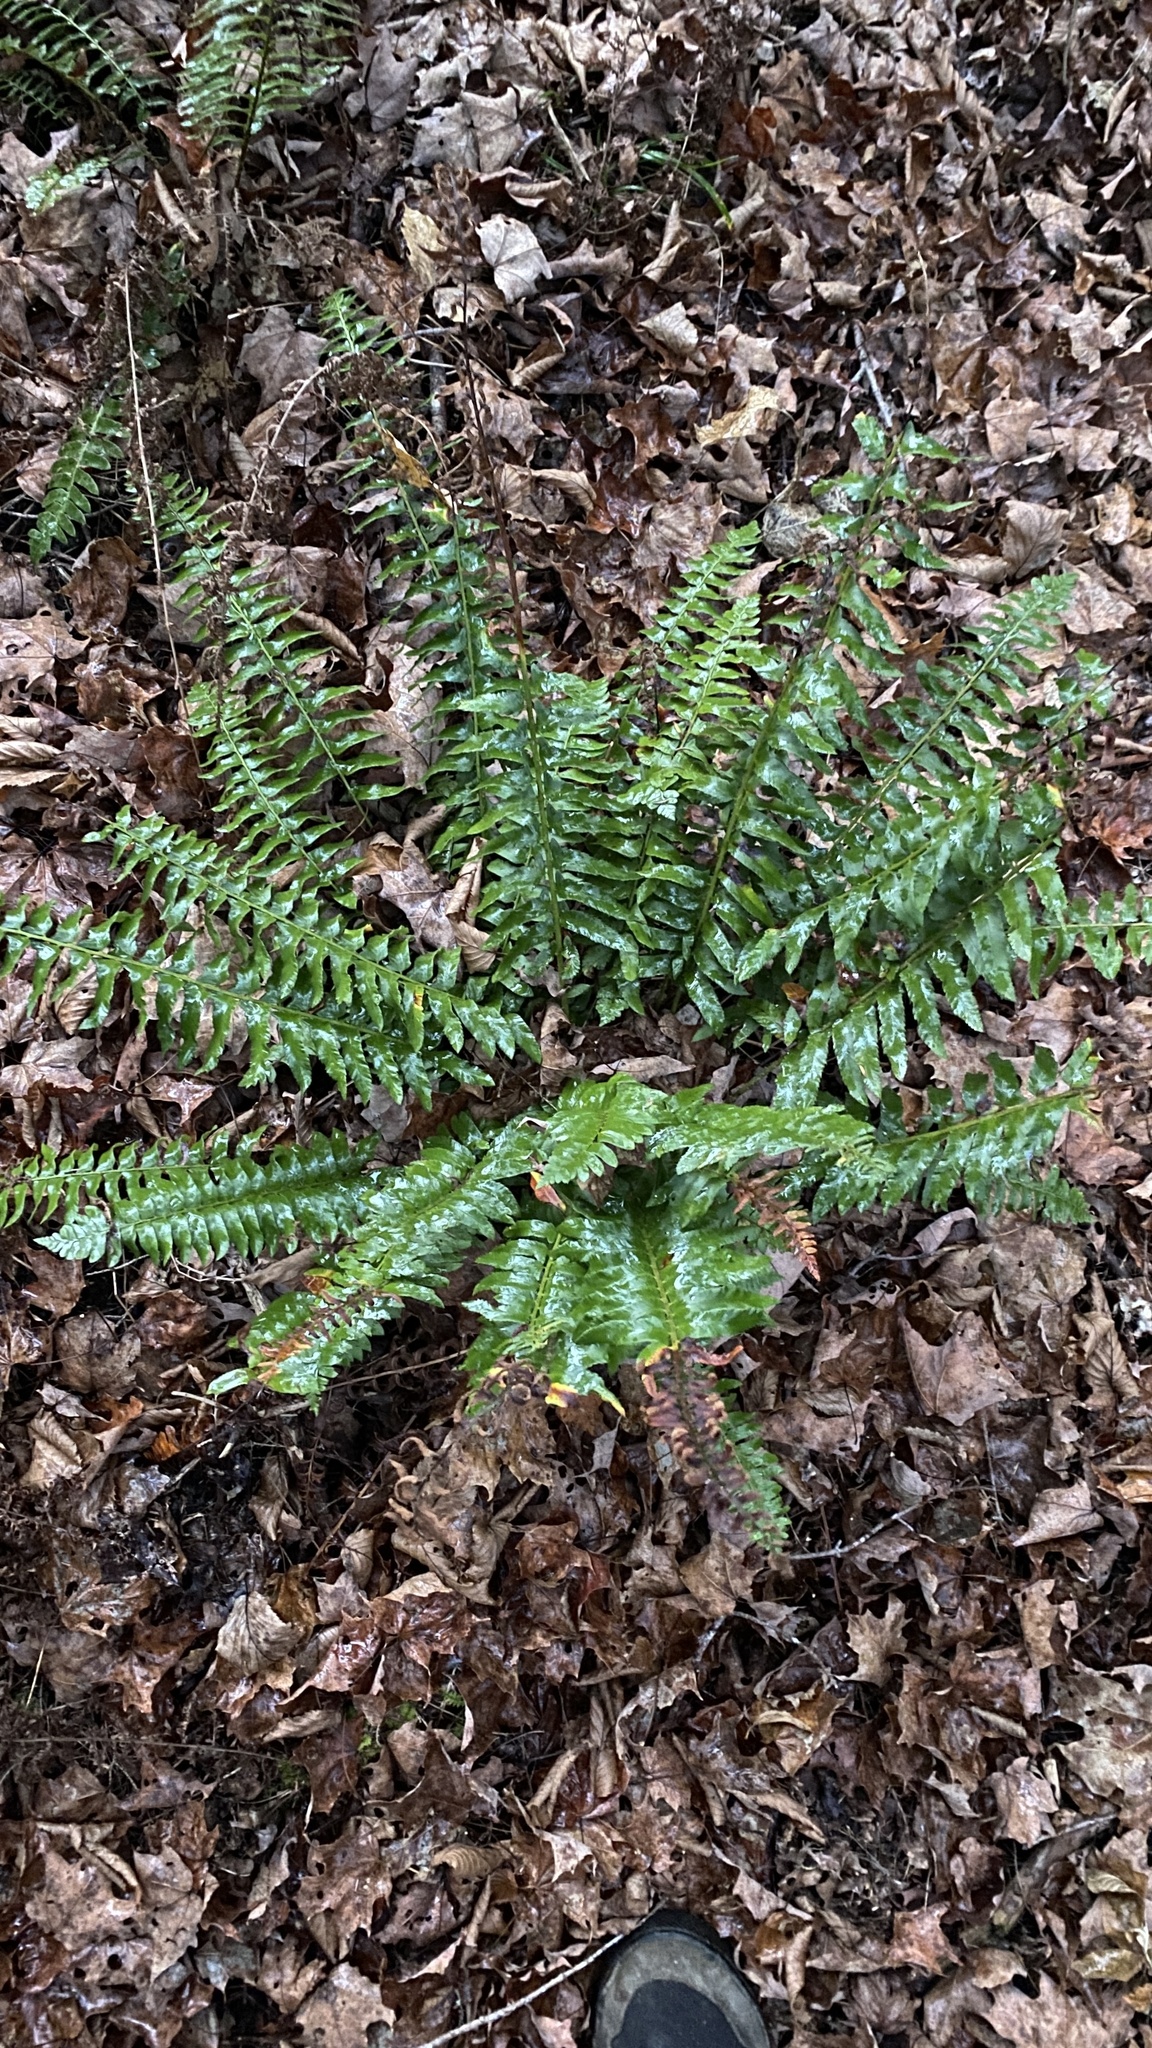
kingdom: Plantae
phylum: Tracheophyta
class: Polypodiopsida
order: Polypodiales
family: Dryopteridaceae
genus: Polystichum
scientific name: Polystichum acrostichoides
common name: Christmas fern
